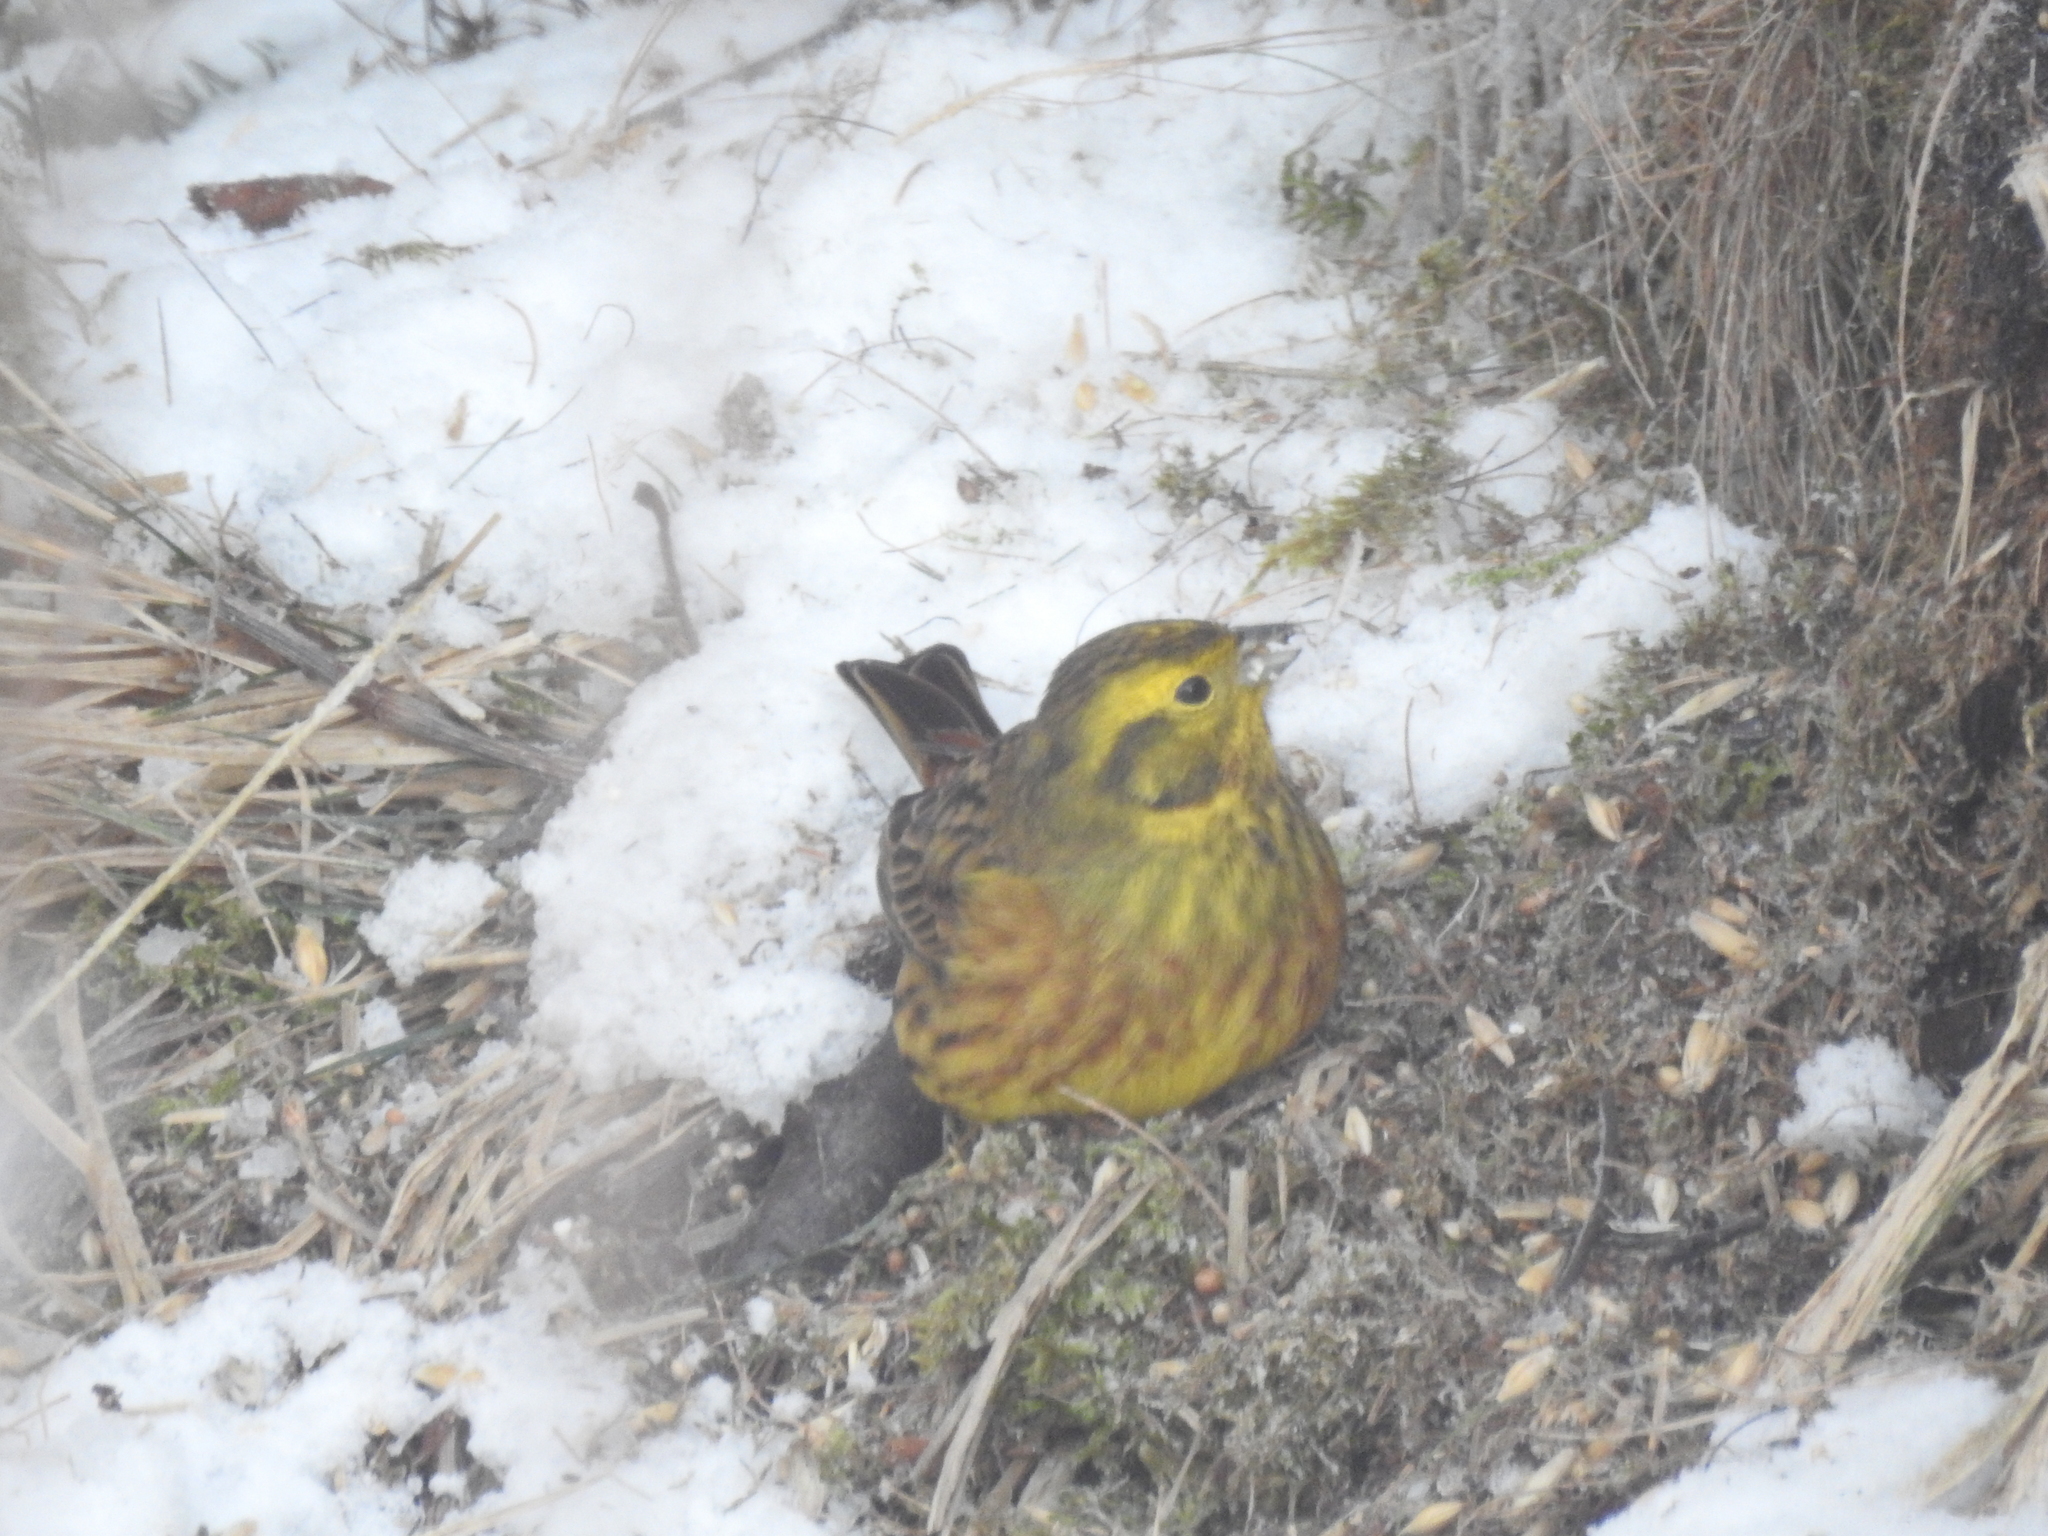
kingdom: Animalia
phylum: Chordata
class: Aves
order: Passeriformes
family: Emberizidae
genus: Emberiza
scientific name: Emberiza citrinella
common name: Yellowhammer
